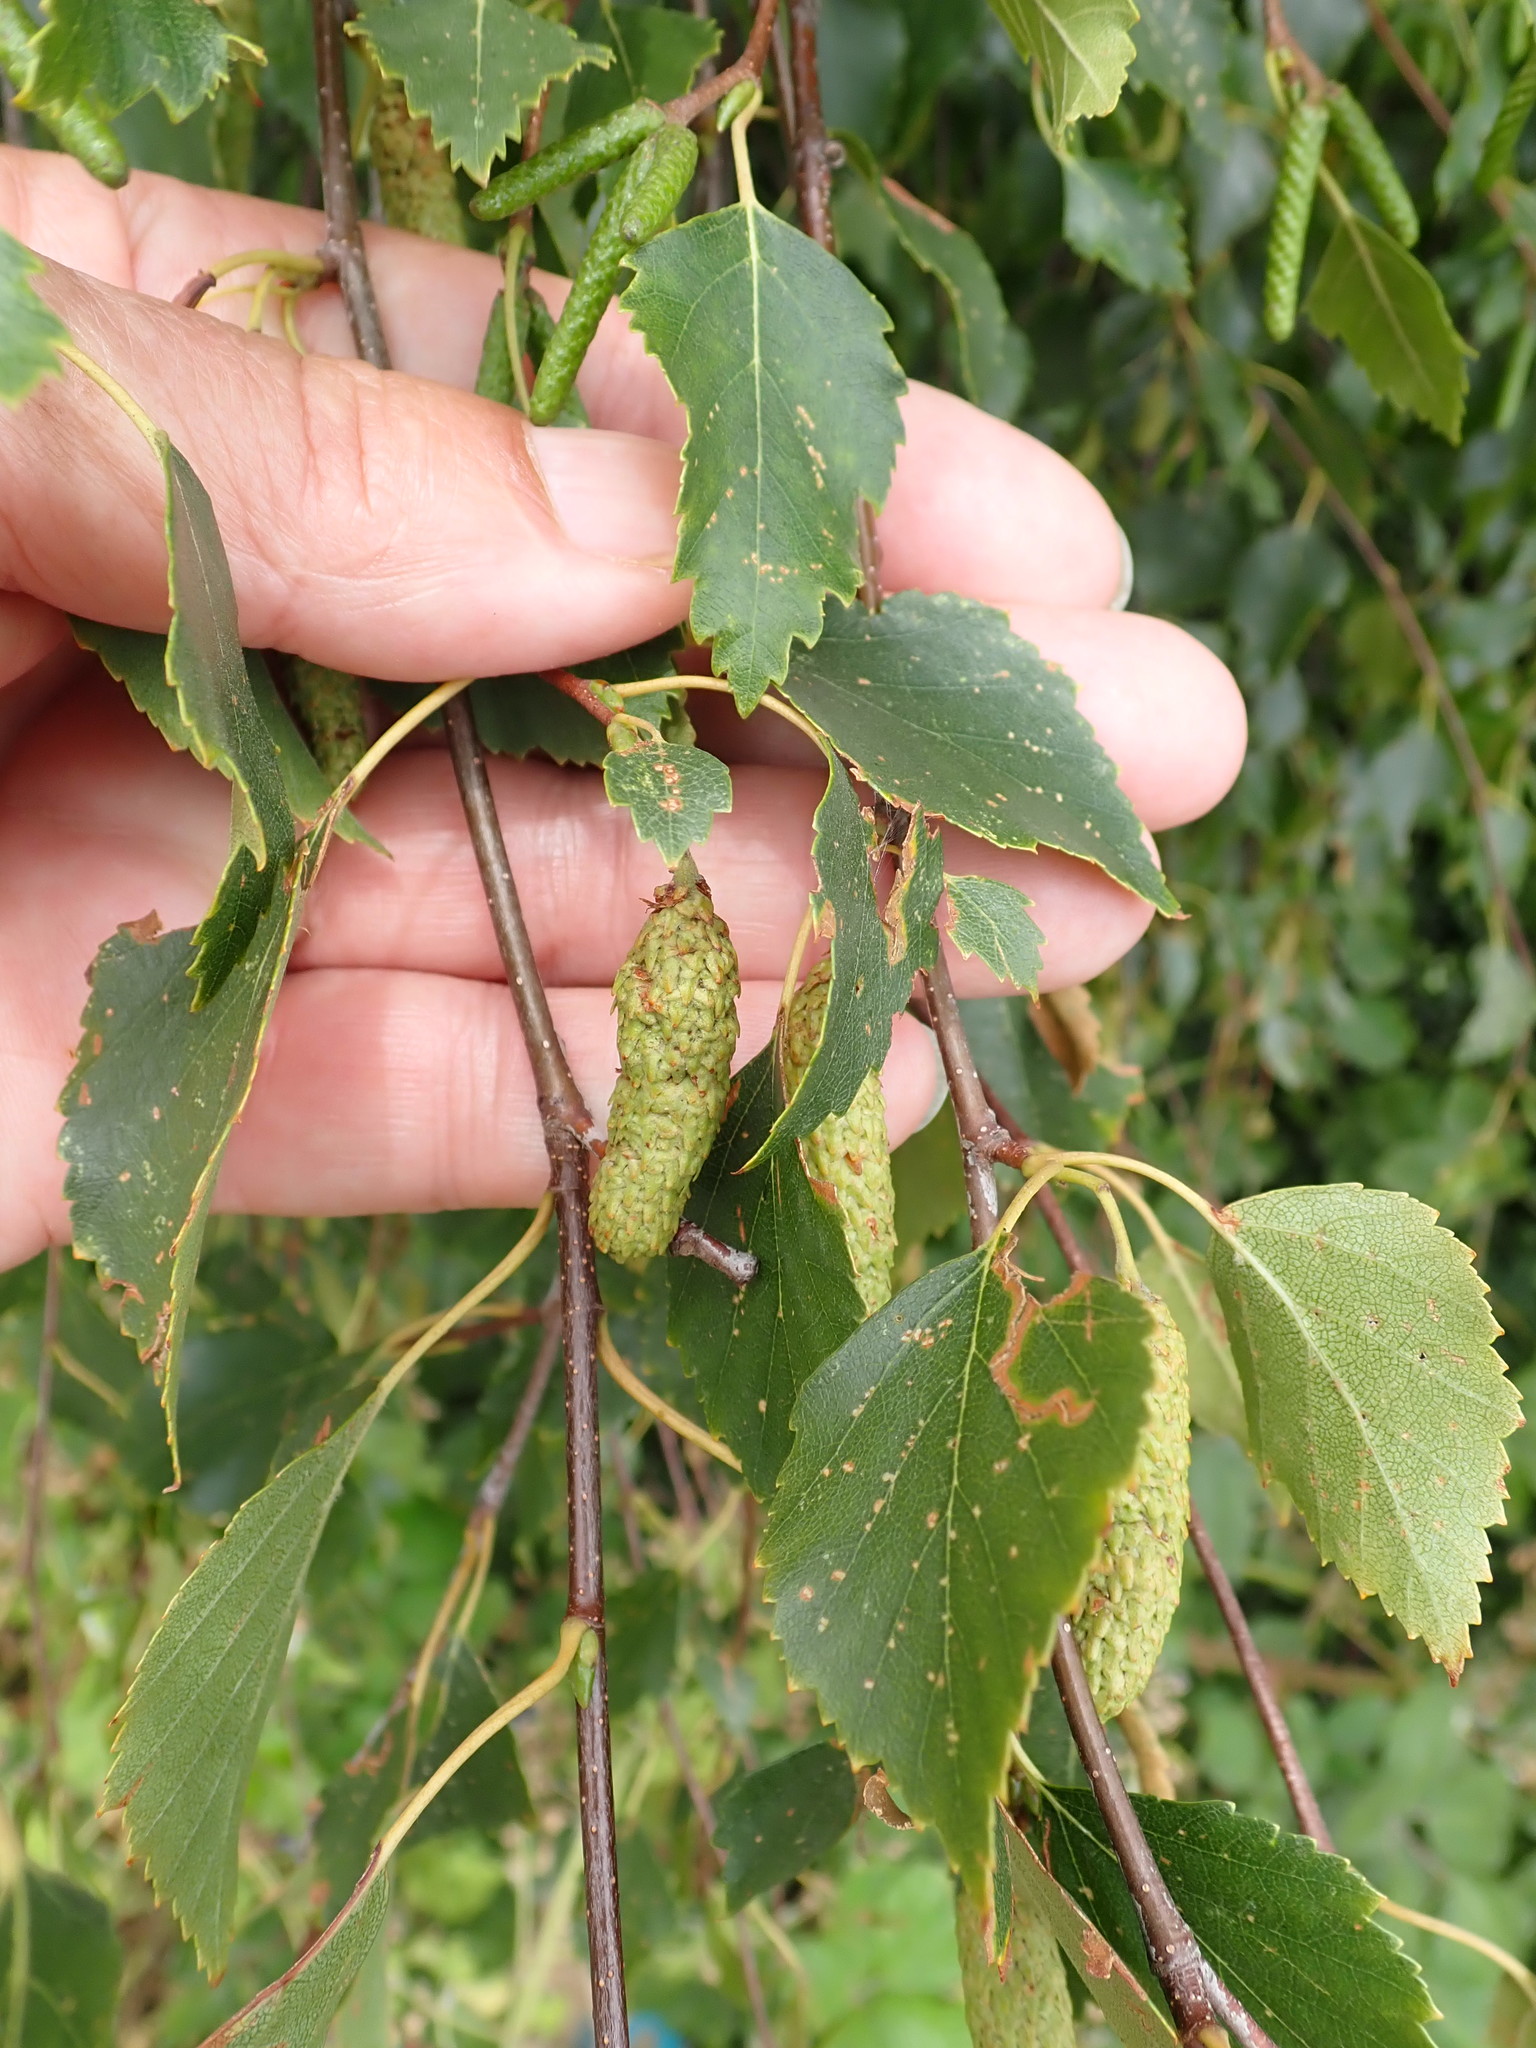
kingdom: Plantae
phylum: Tracheophyta
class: Magnoliopsida
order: Fagales
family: Betulaceae
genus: Betula
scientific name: Betula pendula
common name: Silver birch
